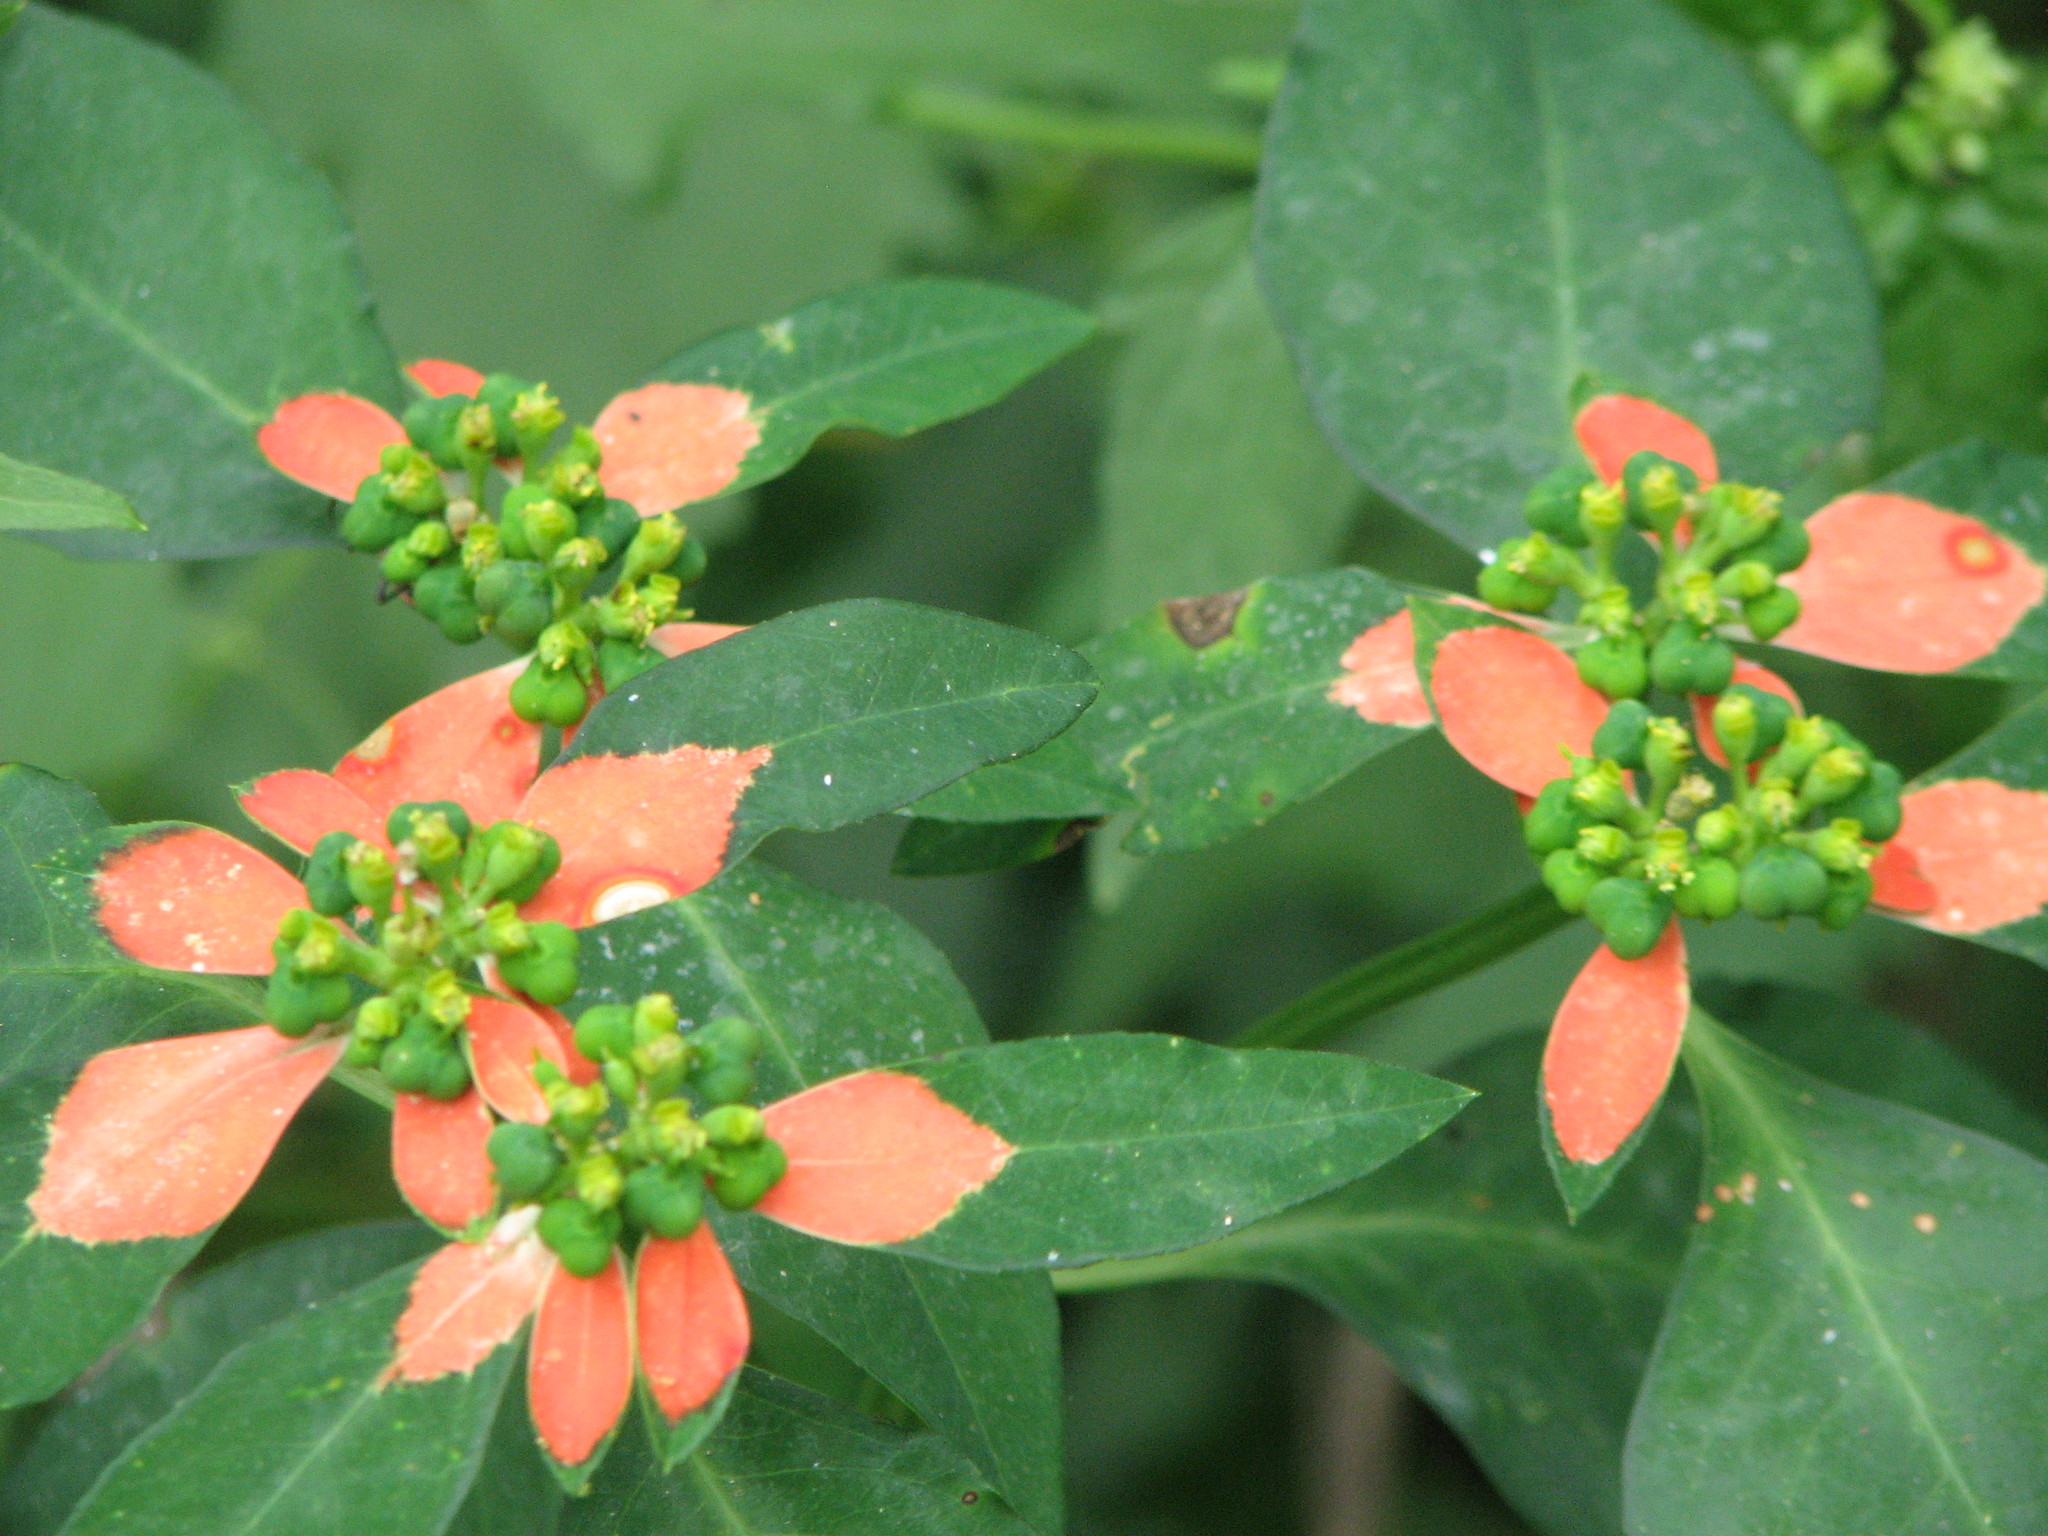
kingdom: Plantae
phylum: Tracheophyta
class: Magnoliopsida
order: Malpighiales
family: Euphorbiaceae
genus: Euphorbia
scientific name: Euphorbia heterophylla
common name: Mexican fireplant
